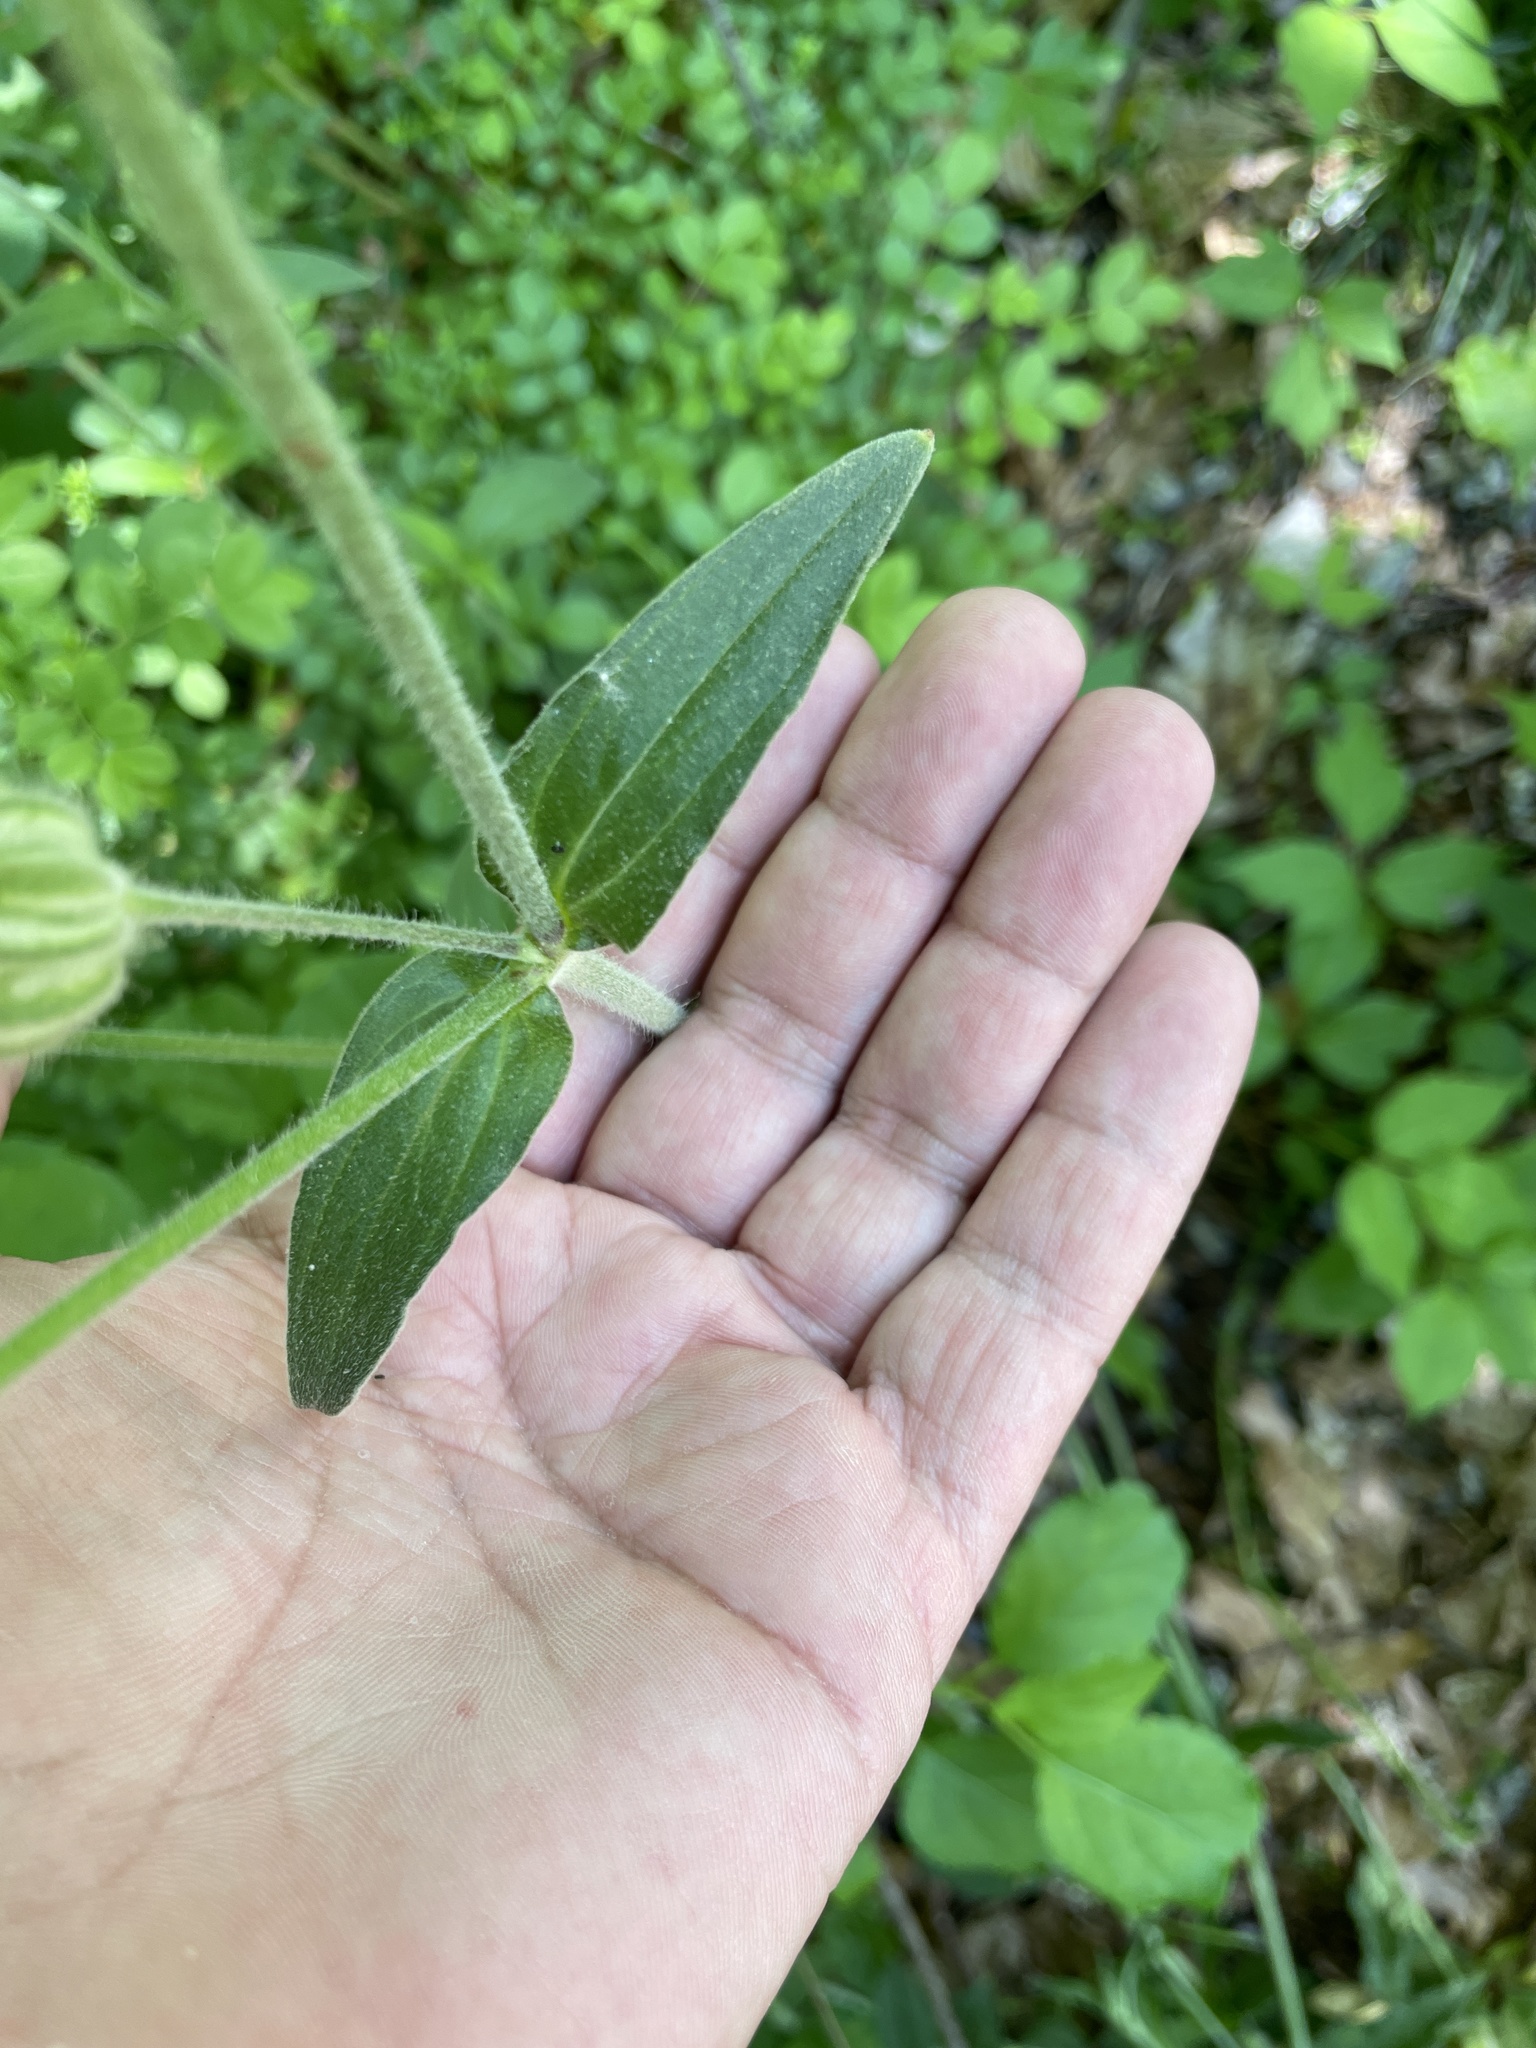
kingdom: Plantae
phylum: Tracheophyta
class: Magnoliopsida
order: Caryophyllales
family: Caryophyllaceae
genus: Silene
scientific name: Silene latifolia
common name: White campion
